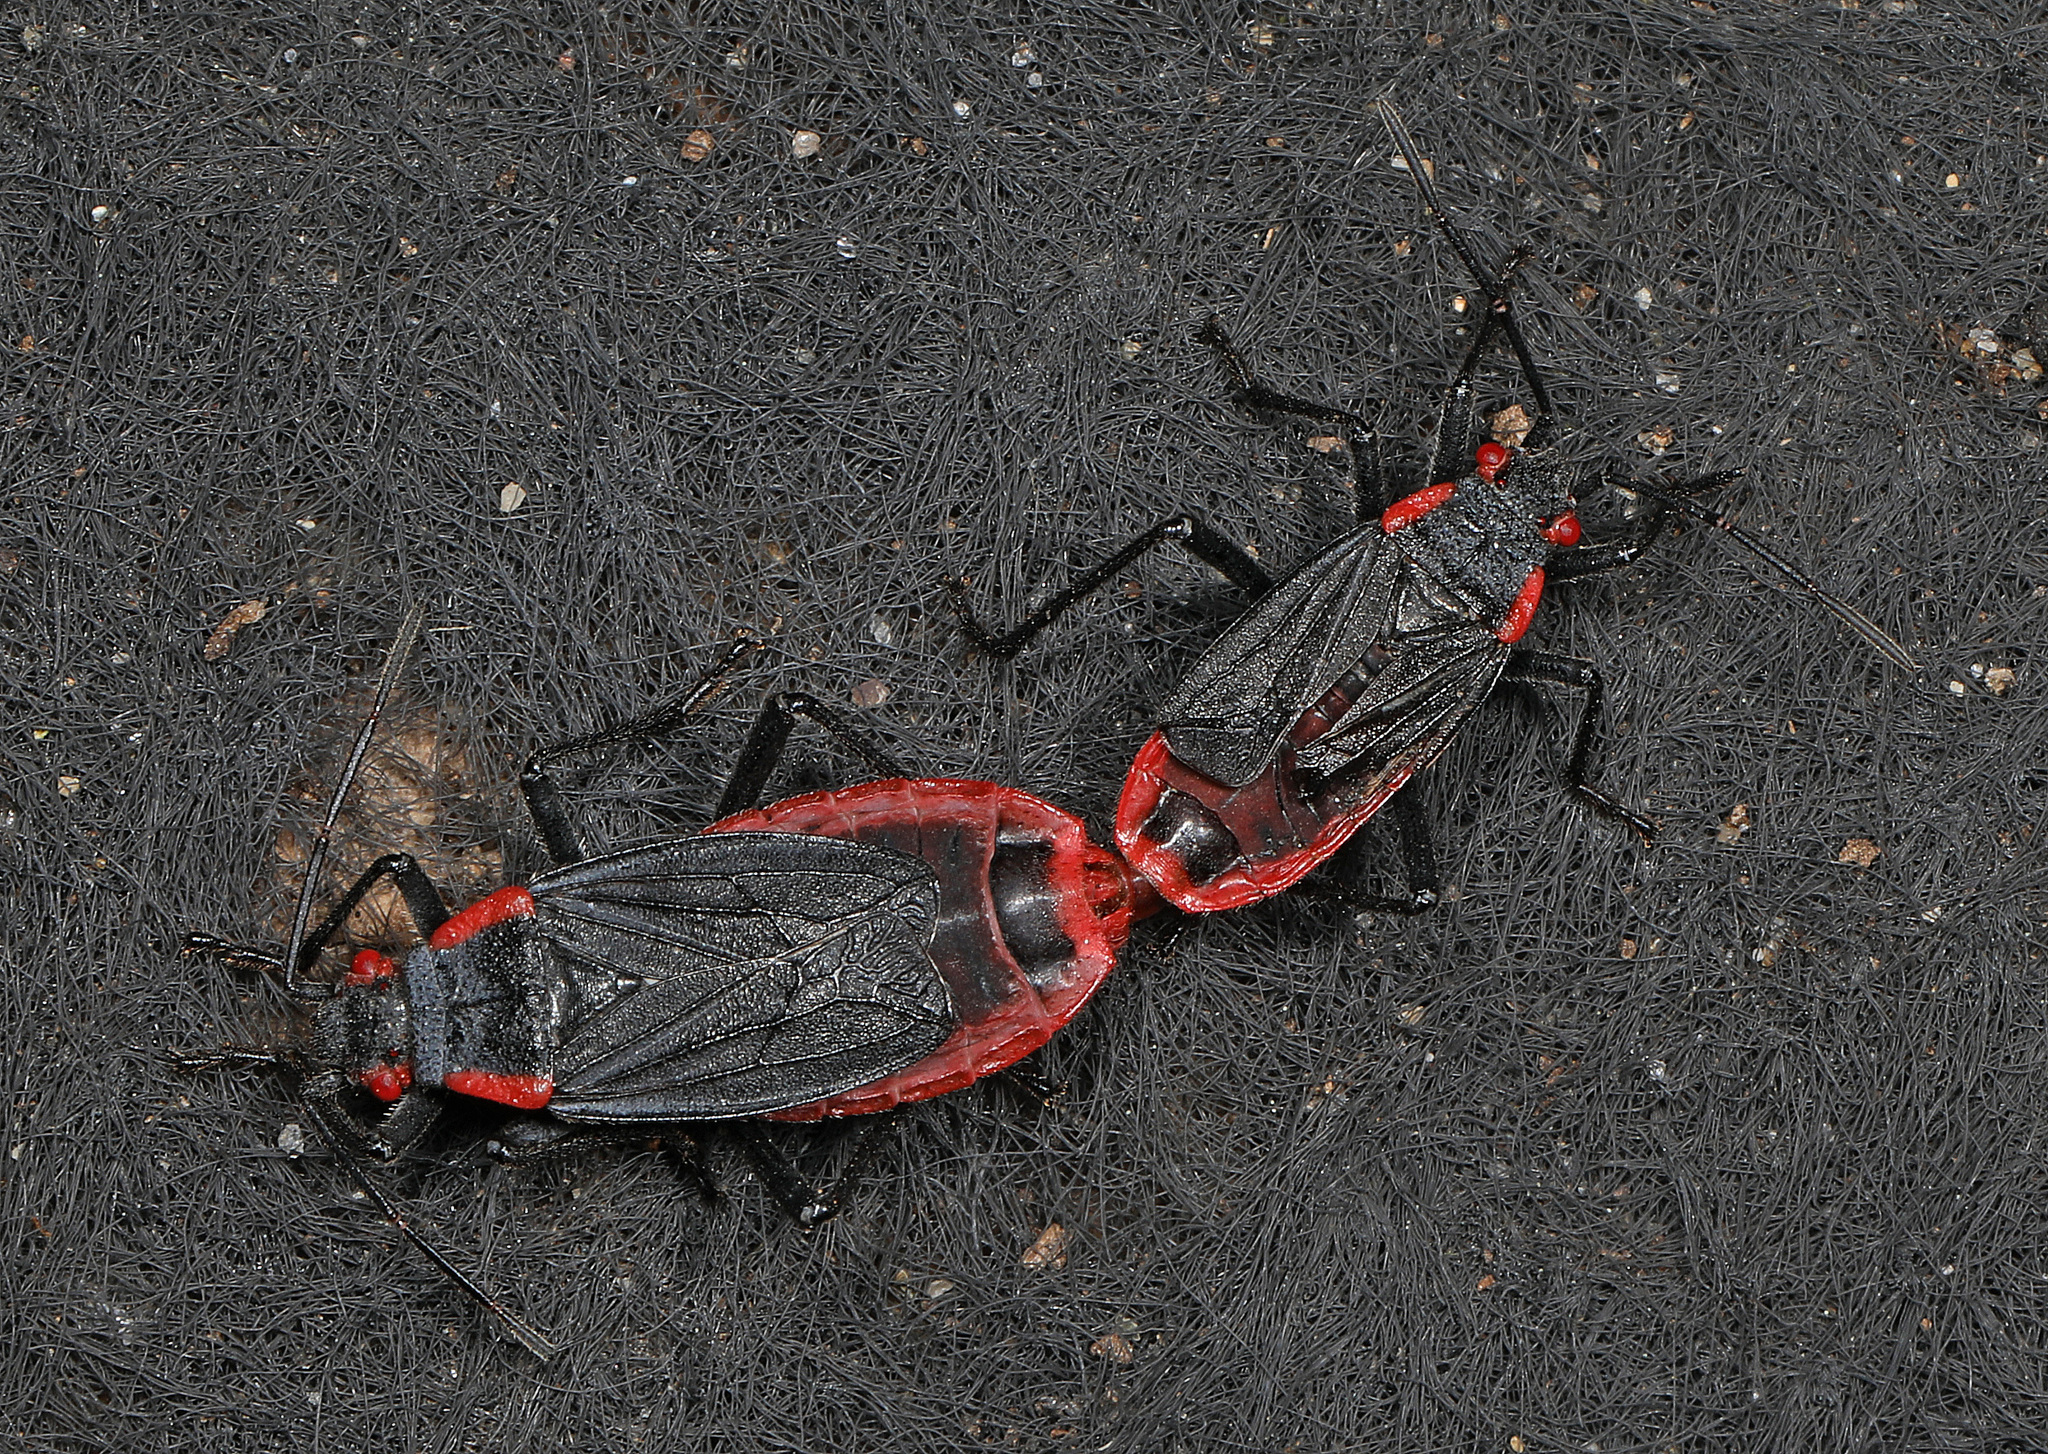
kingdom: Animalia
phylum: Arthropoda
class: Insecta
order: Hemiptera
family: Rhopalidae
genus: Jadera
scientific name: Jadera haematoloma
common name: Red-shouldered bug
